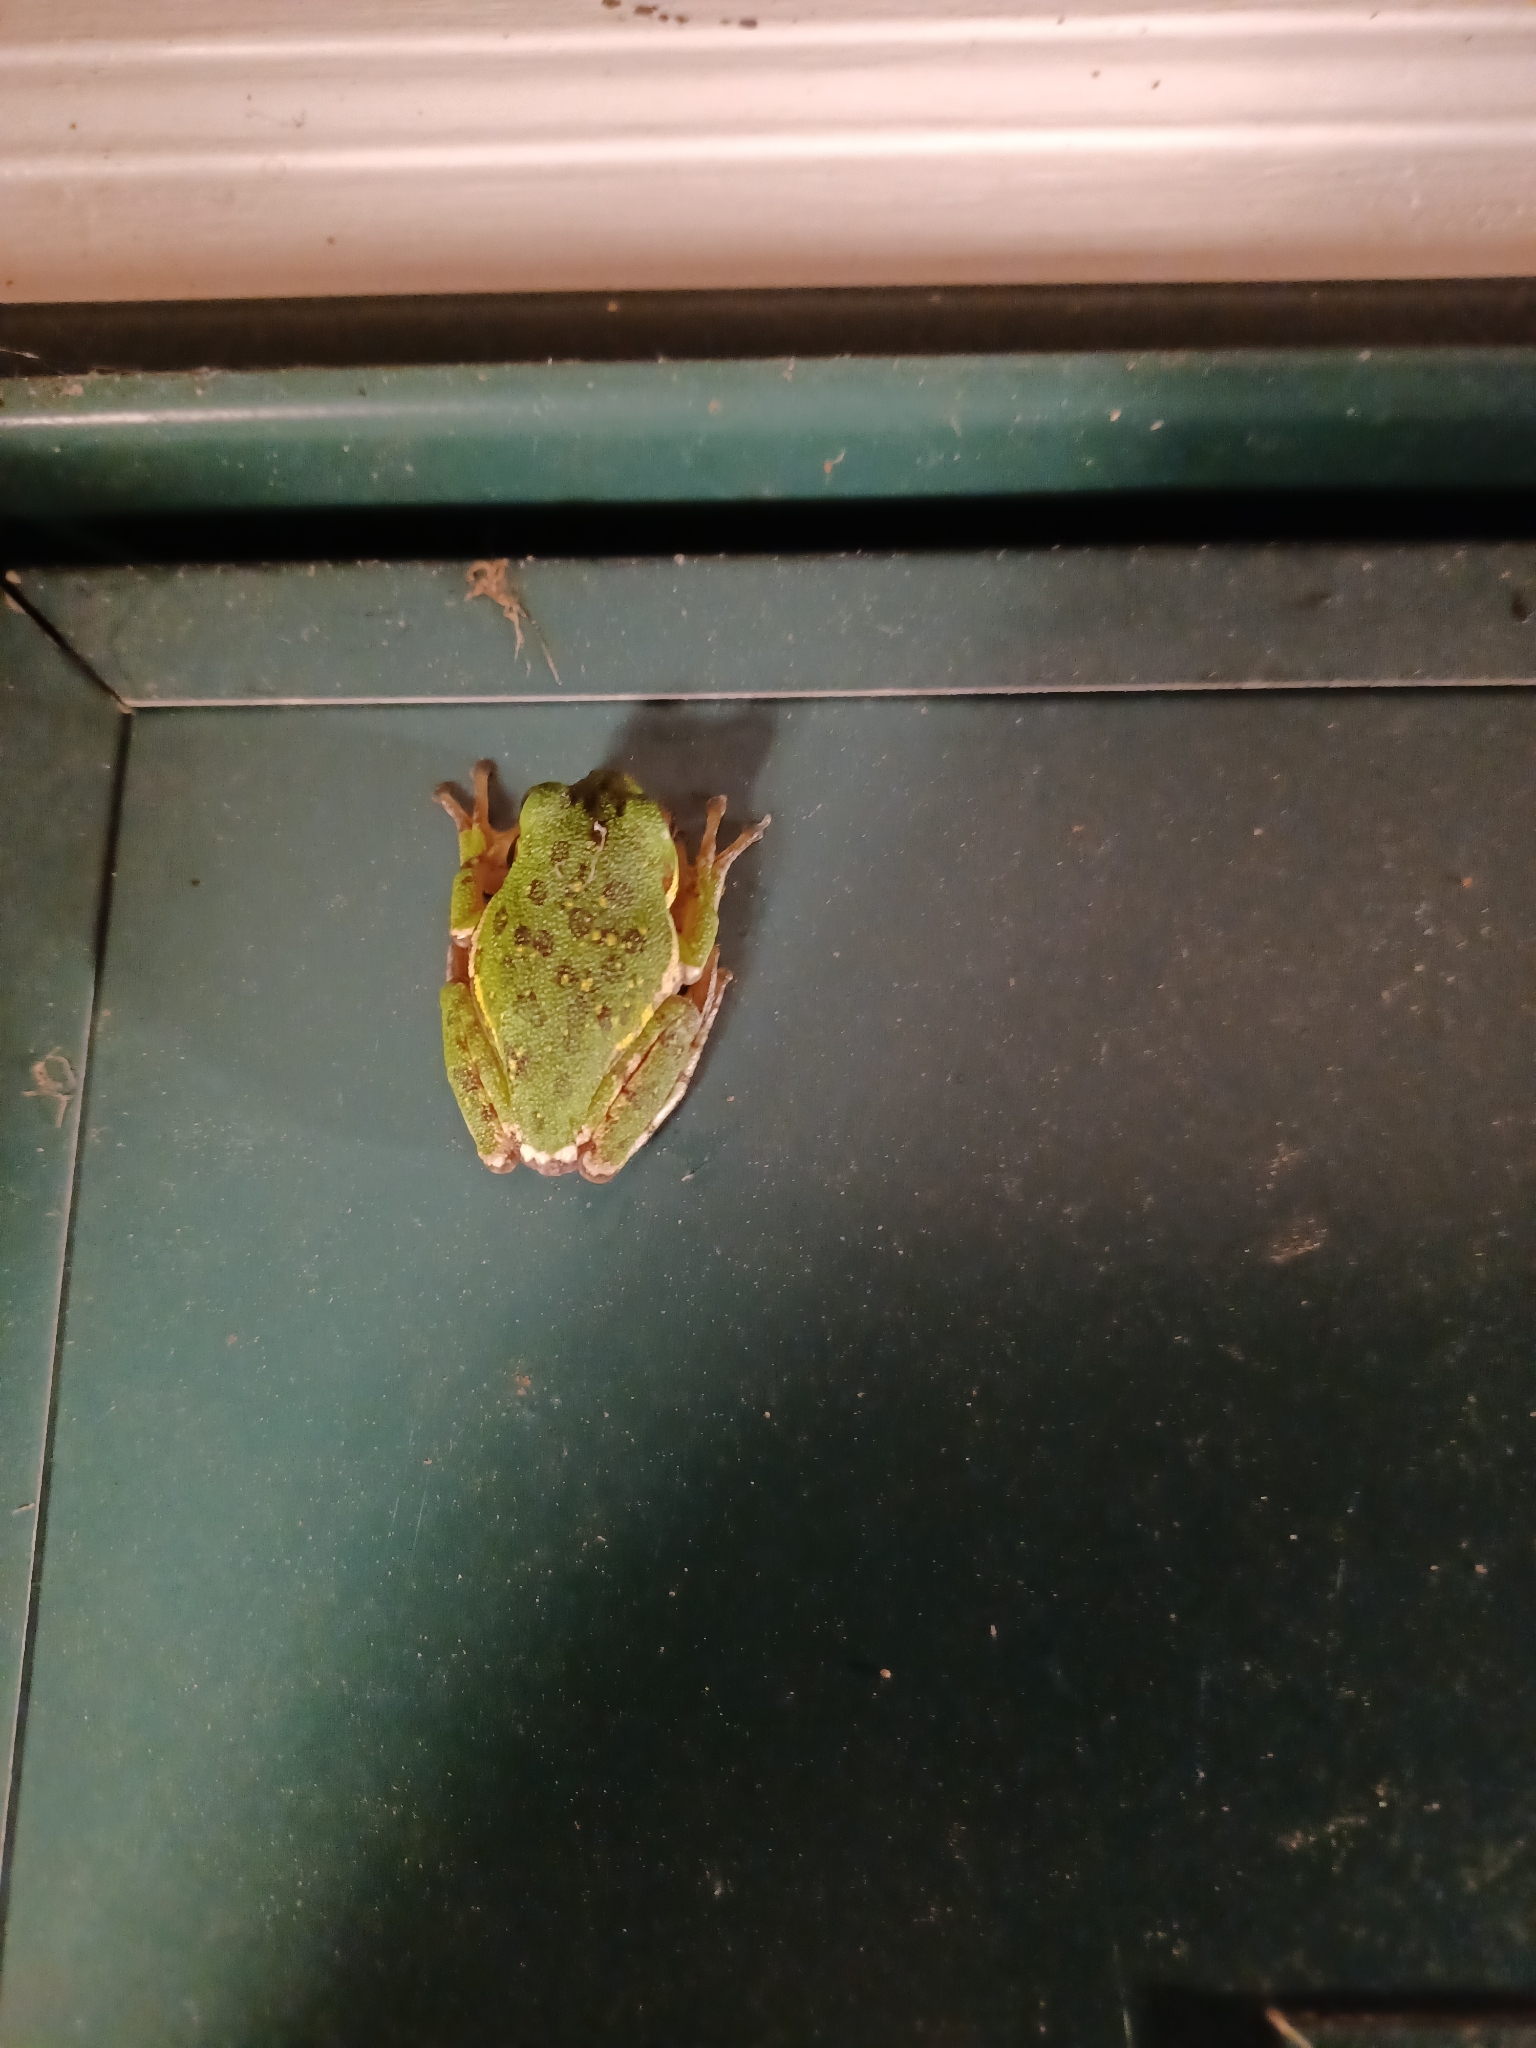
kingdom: Animalia
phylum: Chordata
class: Amphibia
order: Anura
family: Hylidae
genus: Dryophytes
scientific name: Dryophytes gratiosus
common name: Barking treefrog
